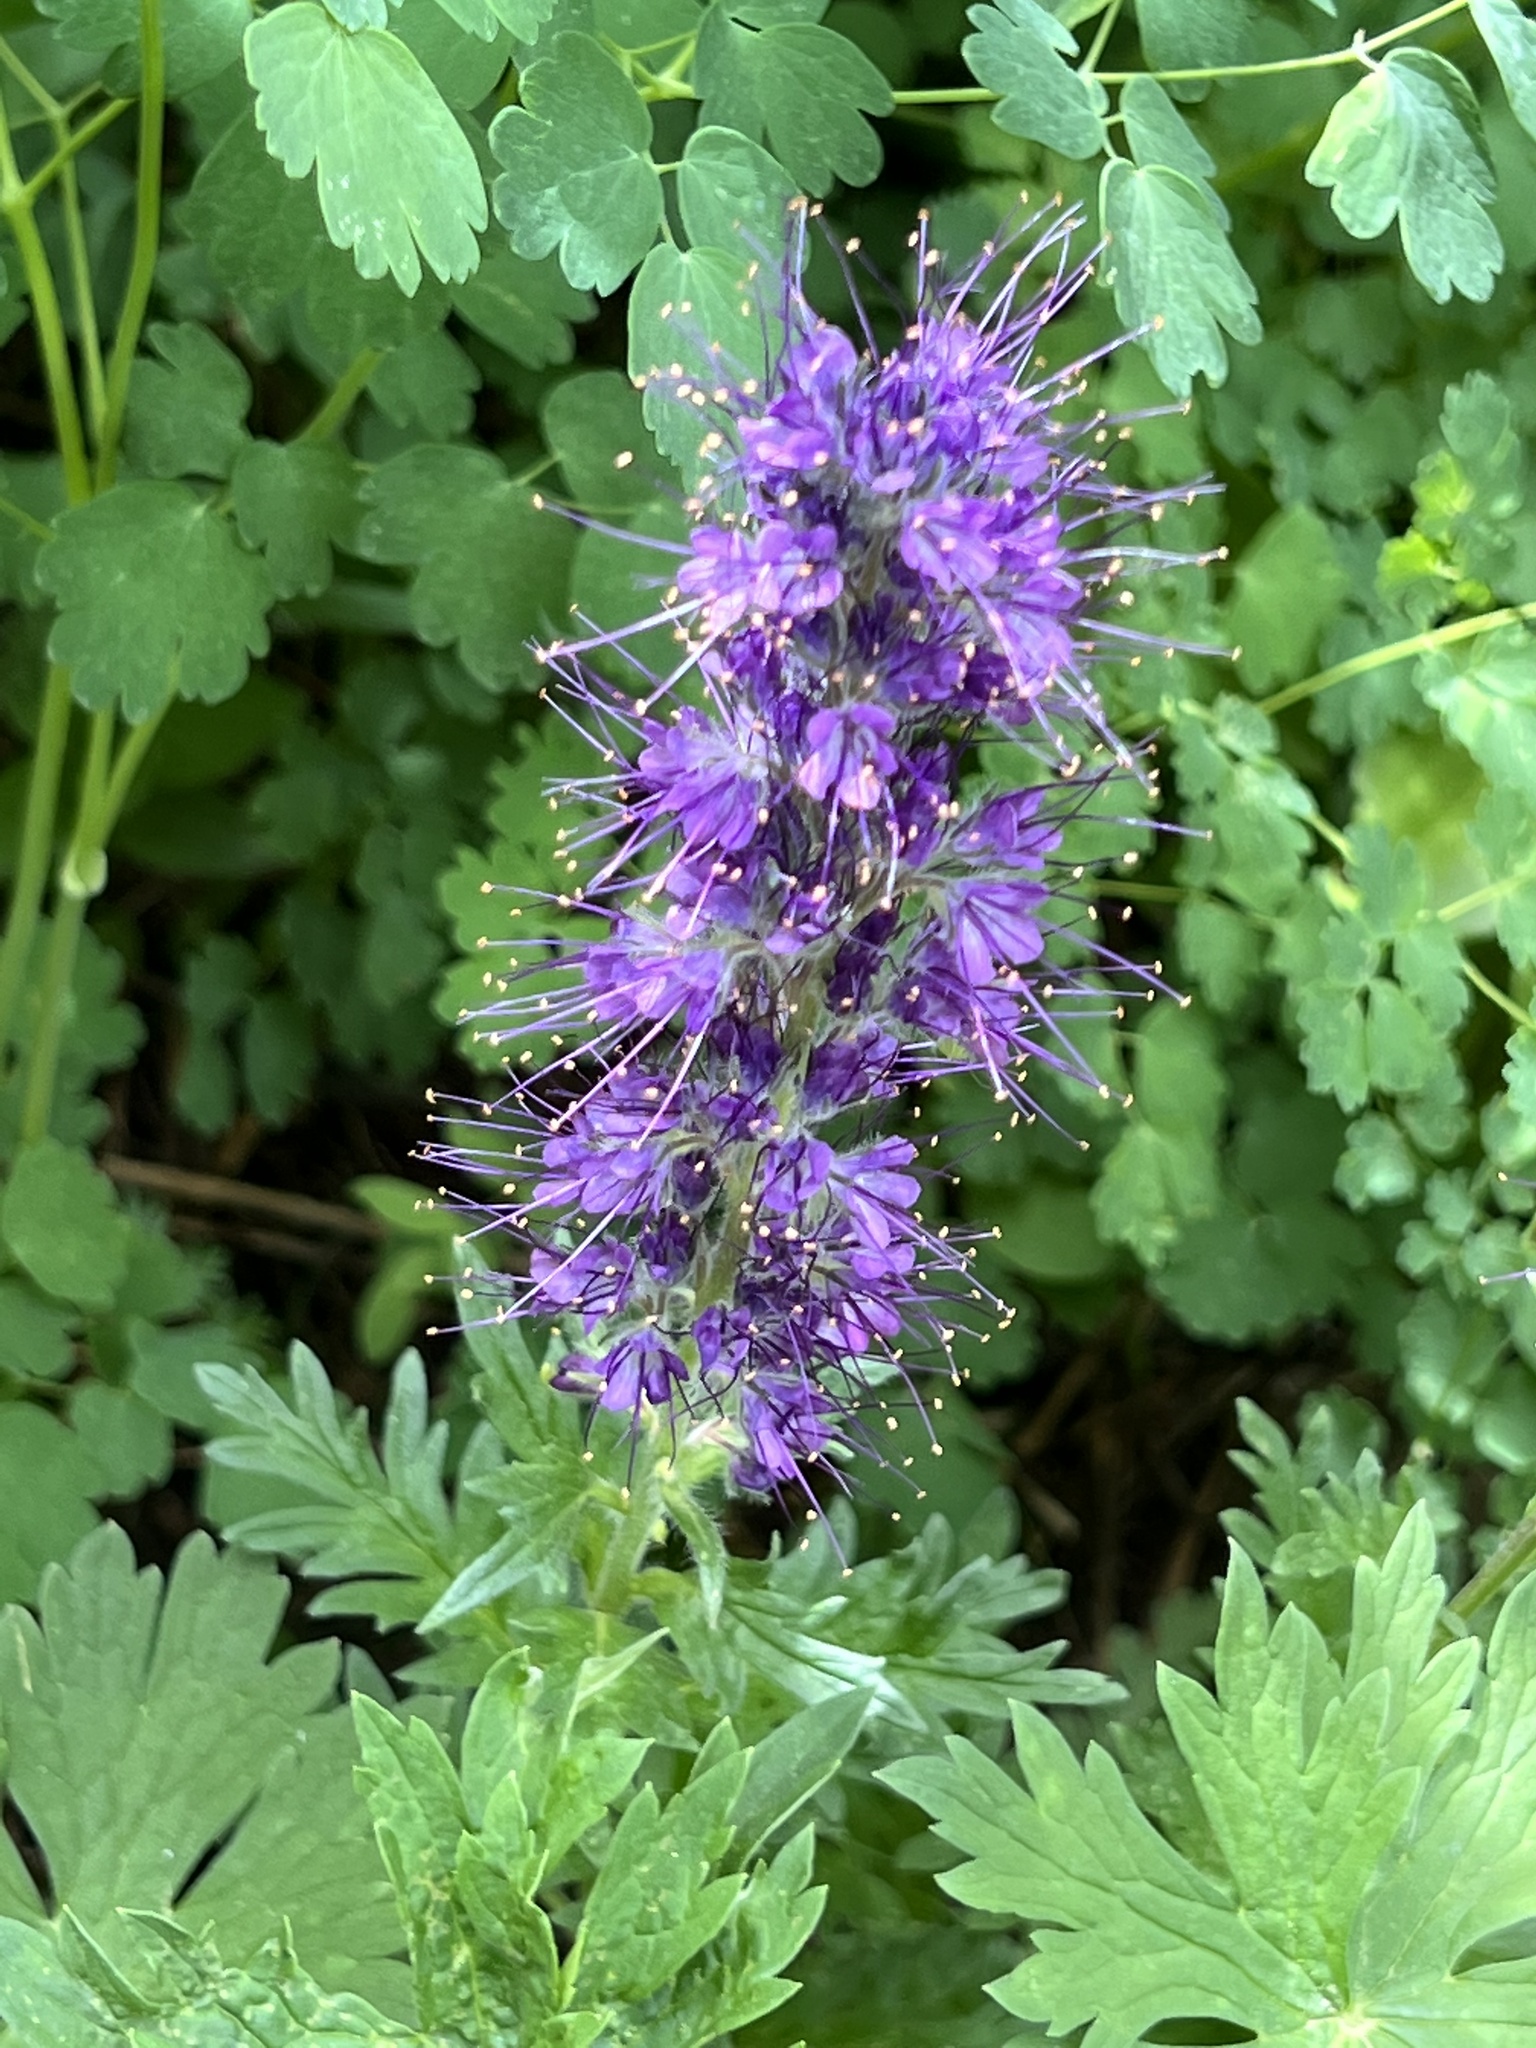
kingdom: Plantae
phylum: Tracheophyta
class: Magnoliopsida
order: Boraginales
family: Hydrophyllaceae
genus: Phacelia
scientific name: Phacelia sericea
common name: Silky phacelia
